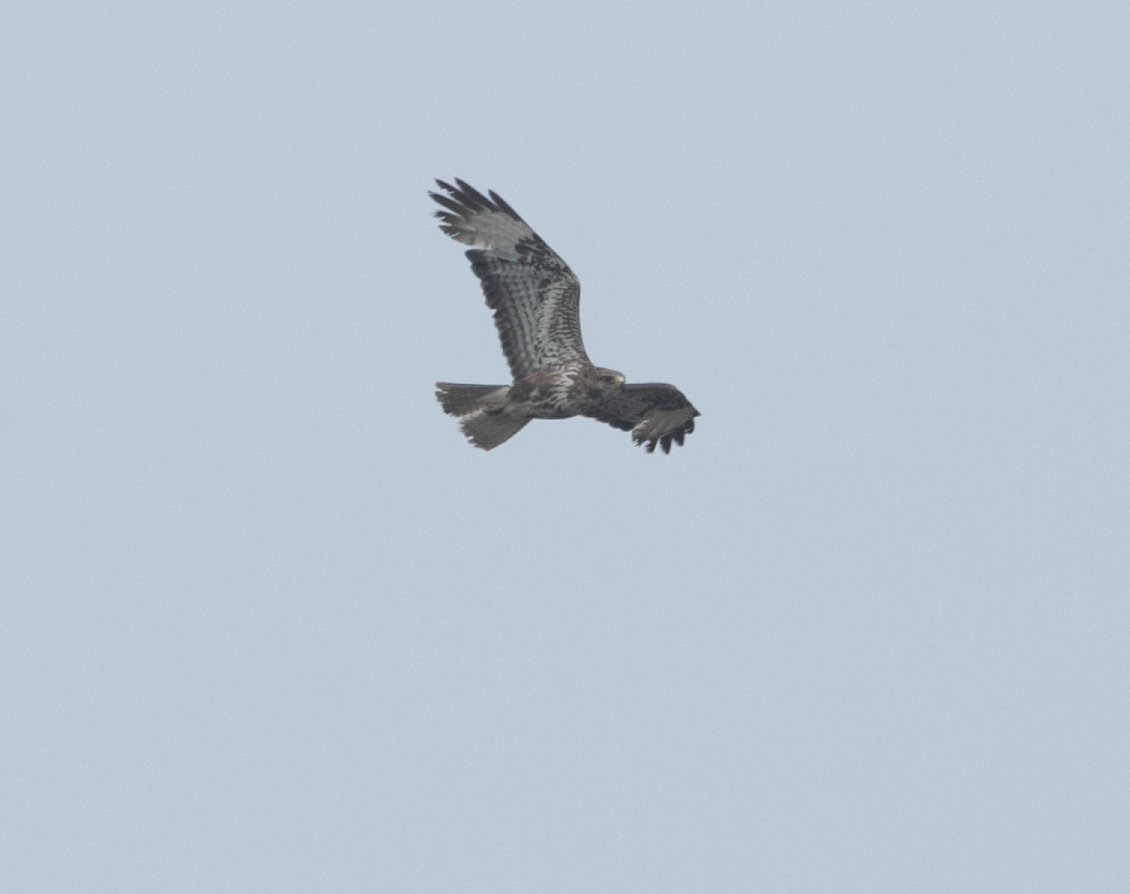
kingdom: Animalia
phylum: Chordata
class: Aves
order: Accipitriformes
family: Accipitridae
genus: Buteo
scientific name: Buteo buteo
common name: Common buzzard
